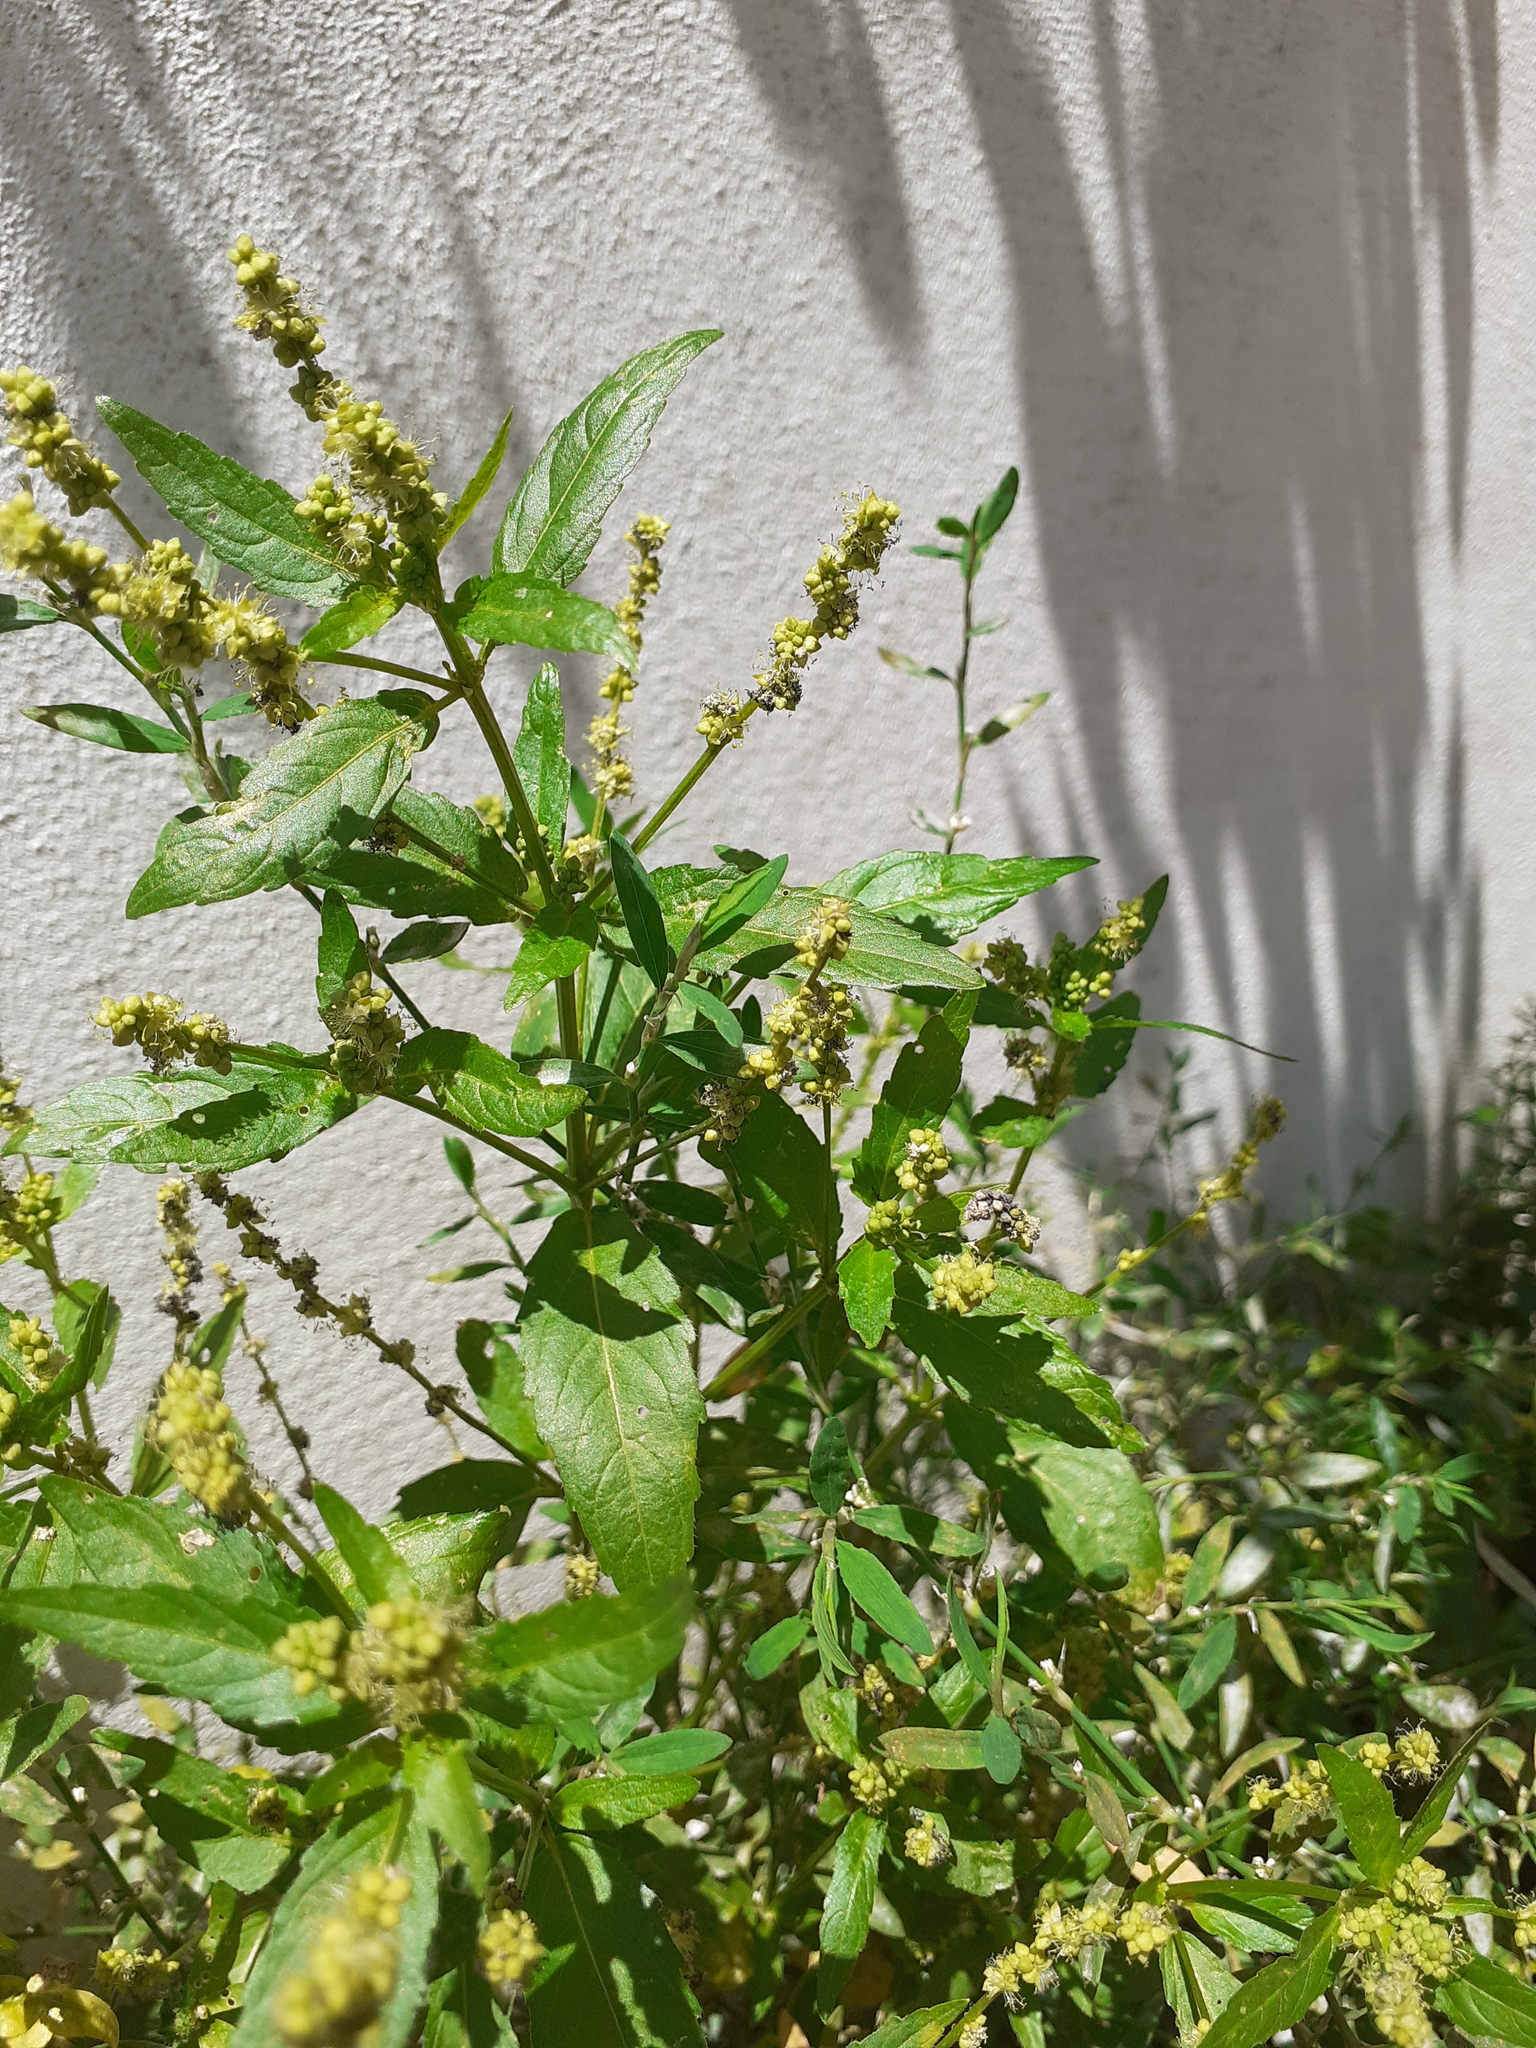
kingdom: Plantae
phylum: Tracheophyta
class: Magnoliopsida
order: Malpighiales
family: Euphorbiaceae
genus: Mercurialis
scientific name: Mercurialis annua
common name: Annual mercury
